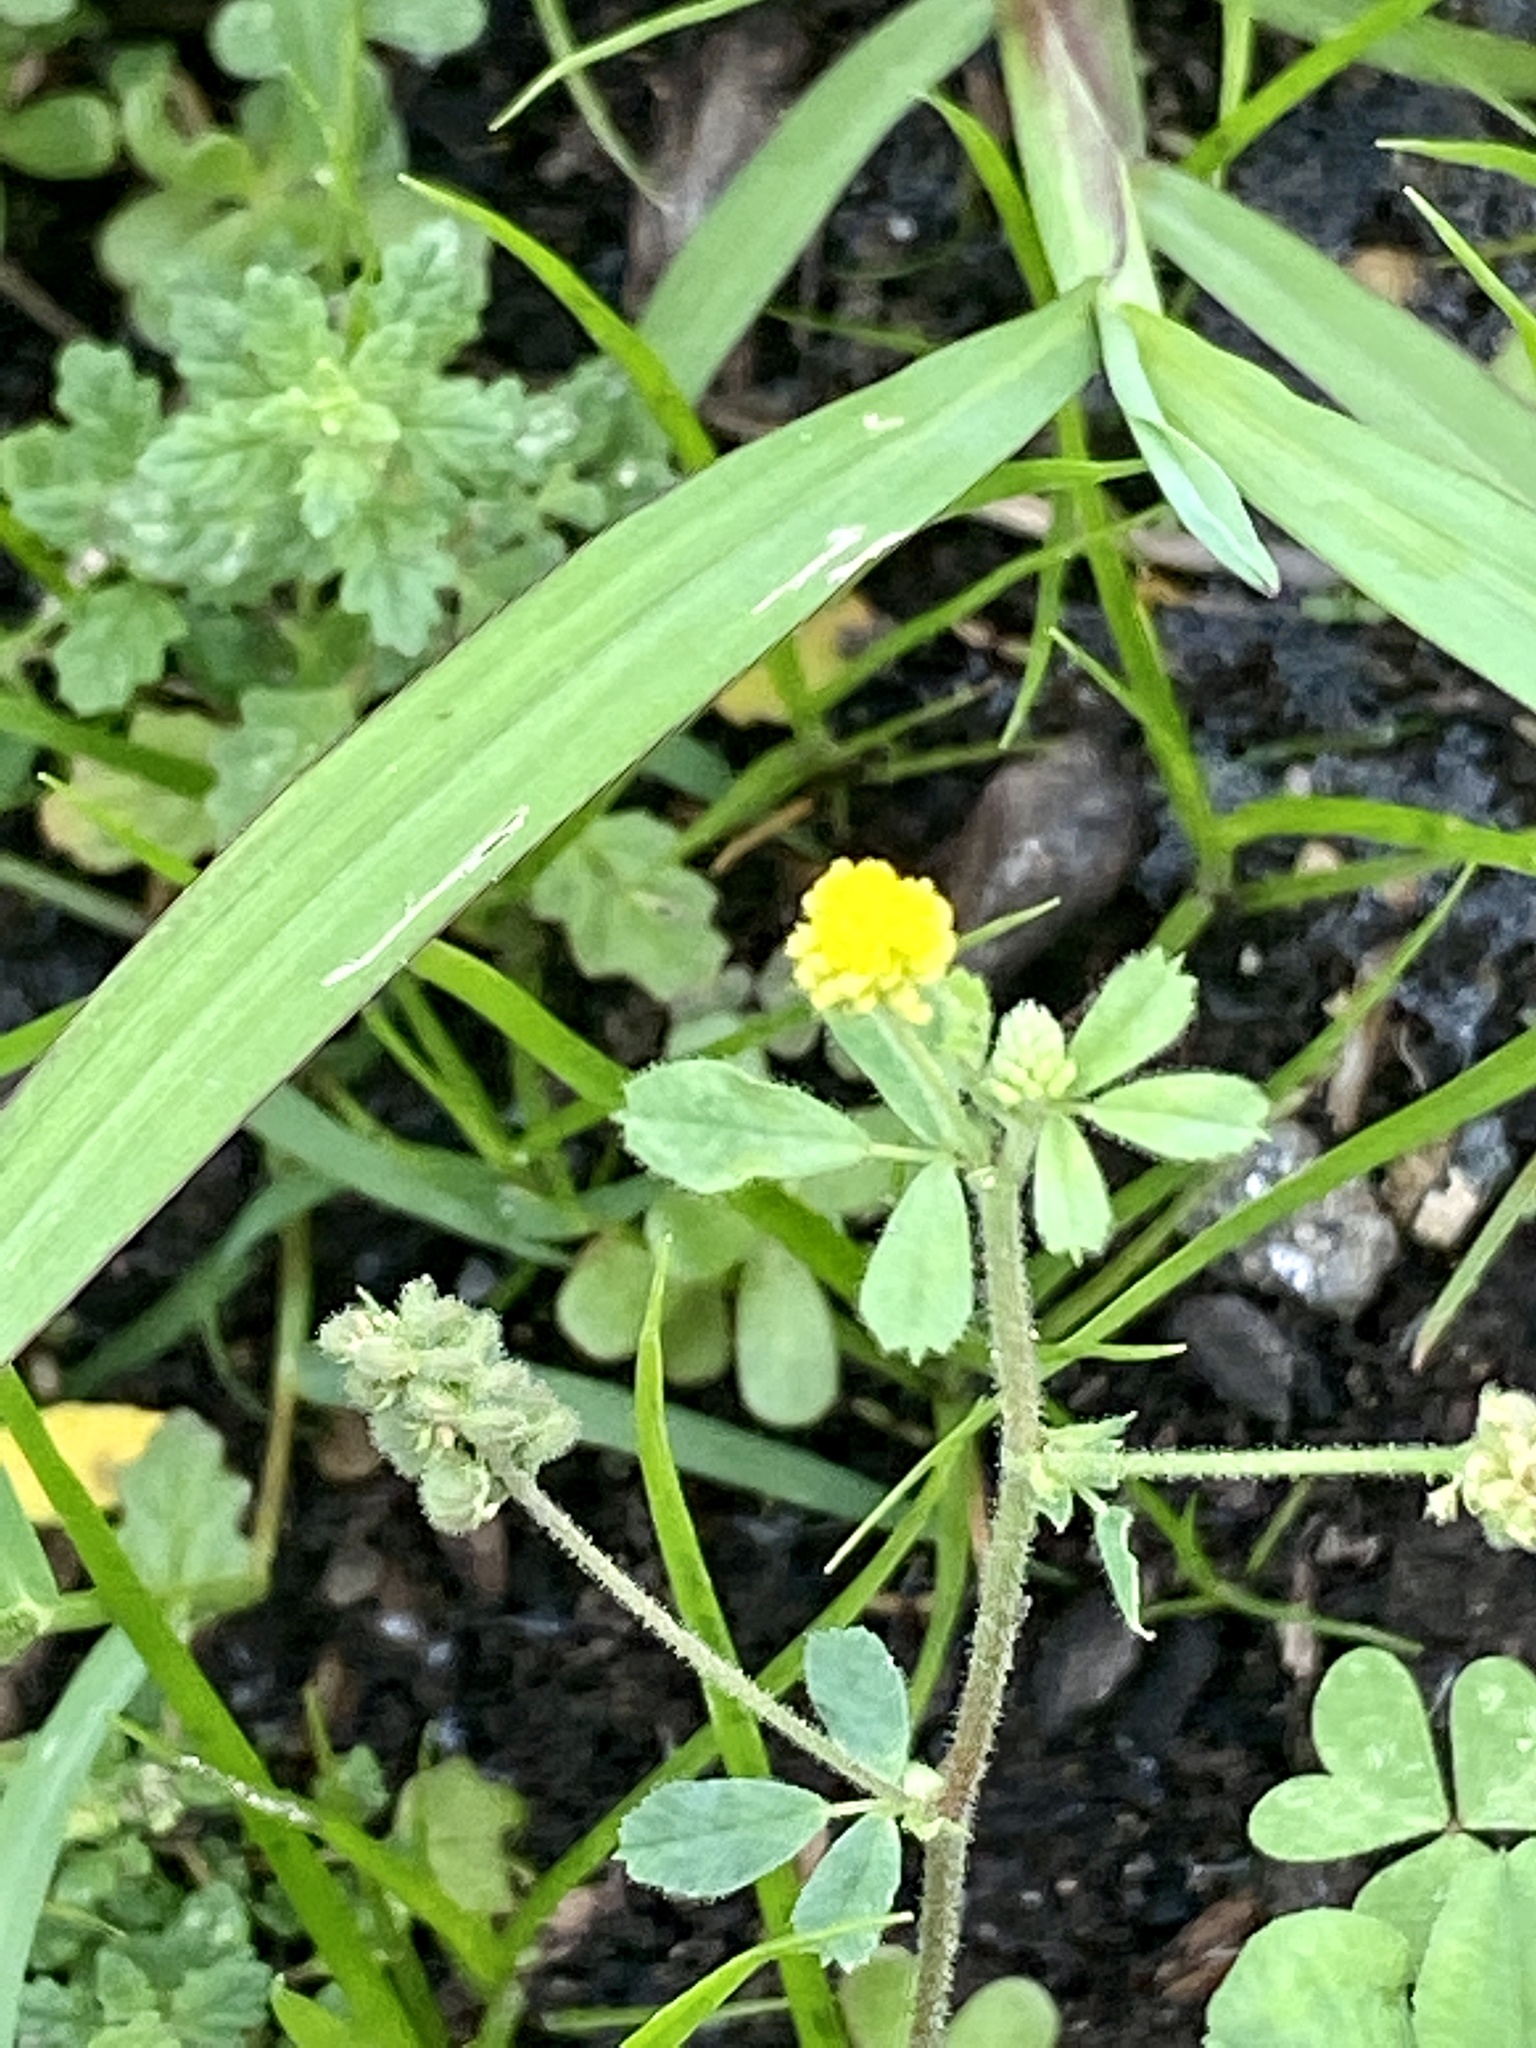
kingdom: Plantae
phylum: Tracheophyta
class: Magnoliopsida
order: Fabales
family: Fabaceae
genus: Medicago
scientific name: Medicago lupulina
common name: Black medick
